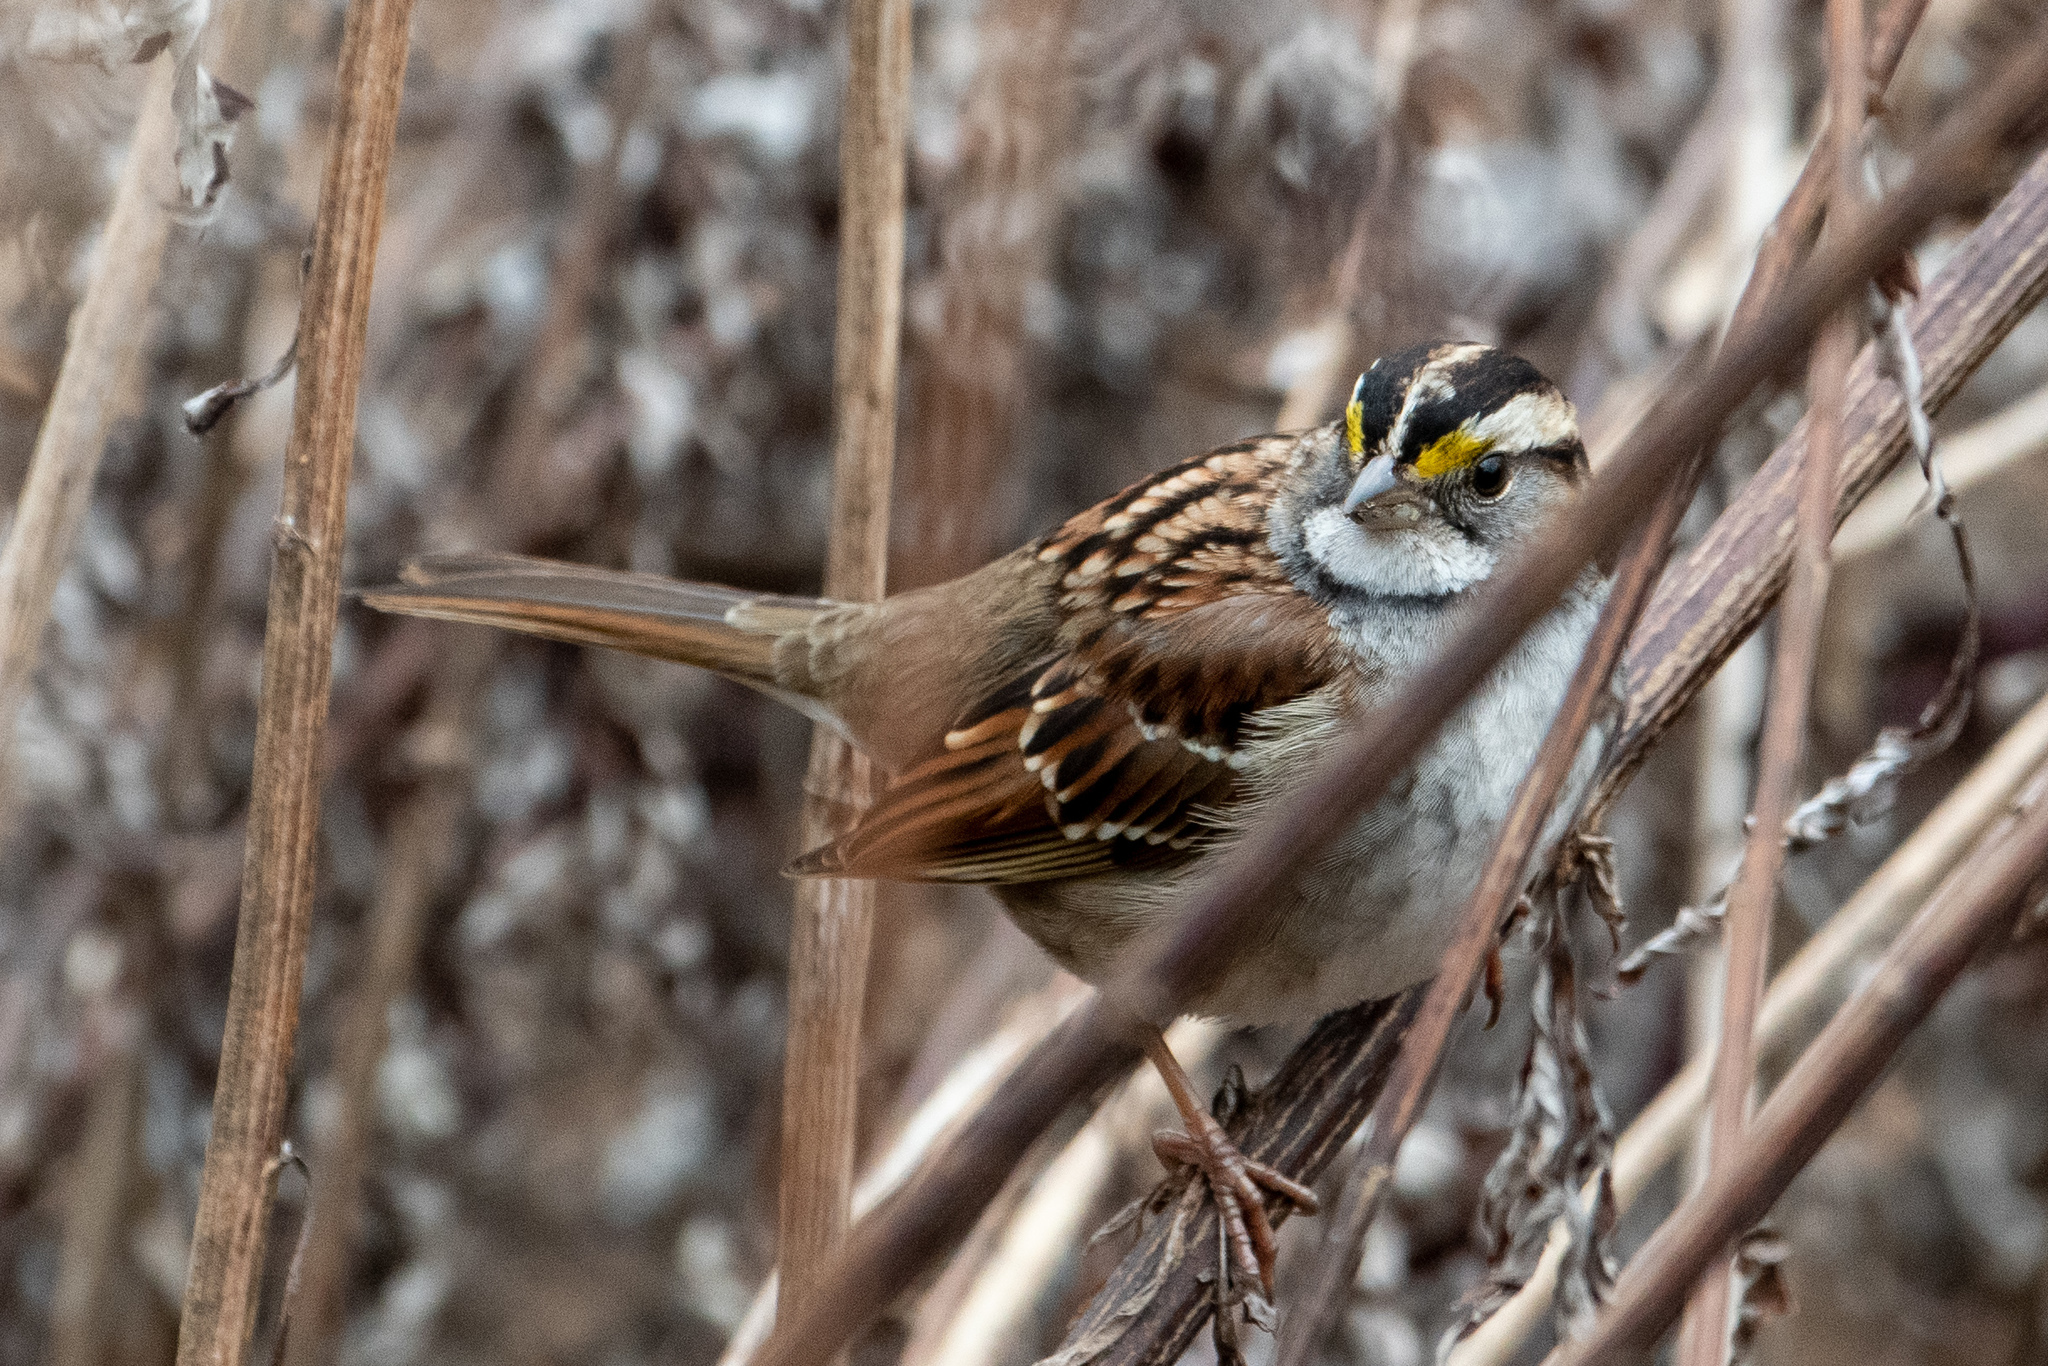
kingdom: Animalia
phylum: Chordata
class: Aves
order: Passeriformes
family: Passerellidae
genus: Zonotrichia
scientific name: Zonotrichia albicollis
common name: White-throated sparrow
